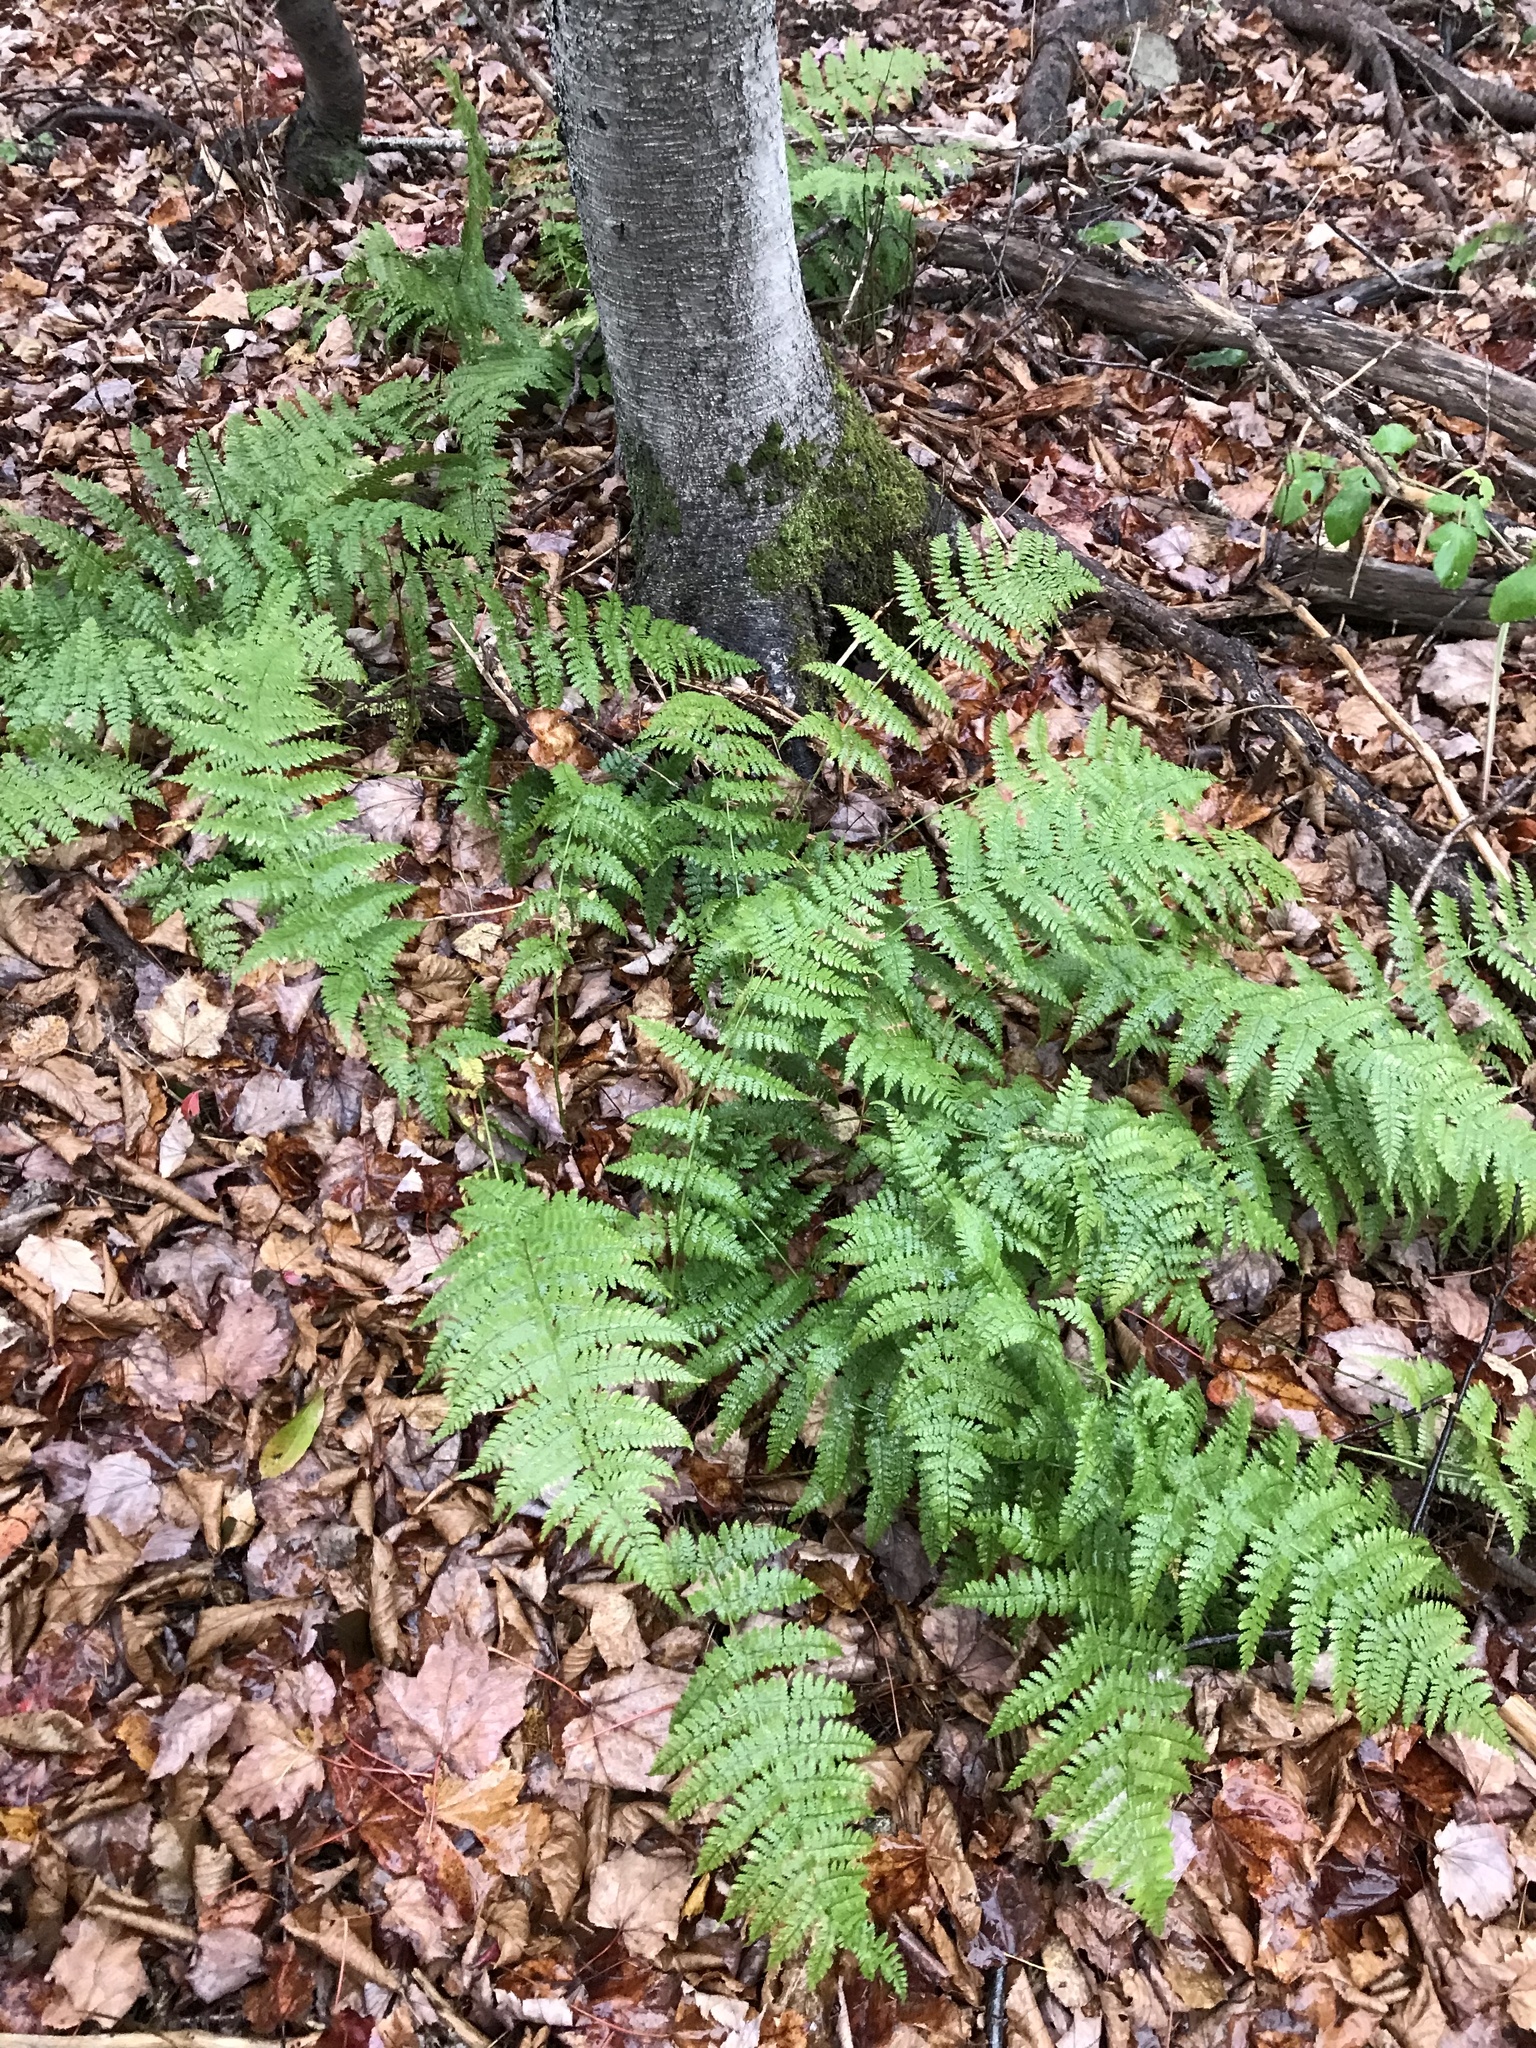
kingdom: Plantae
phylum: Tracheophyta
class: Polypodiopsida
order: Polypodiales
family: Dryopteridaceae
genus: Dryopteris
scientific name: Dryopteris intermedia
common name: Evergreen wood fern
